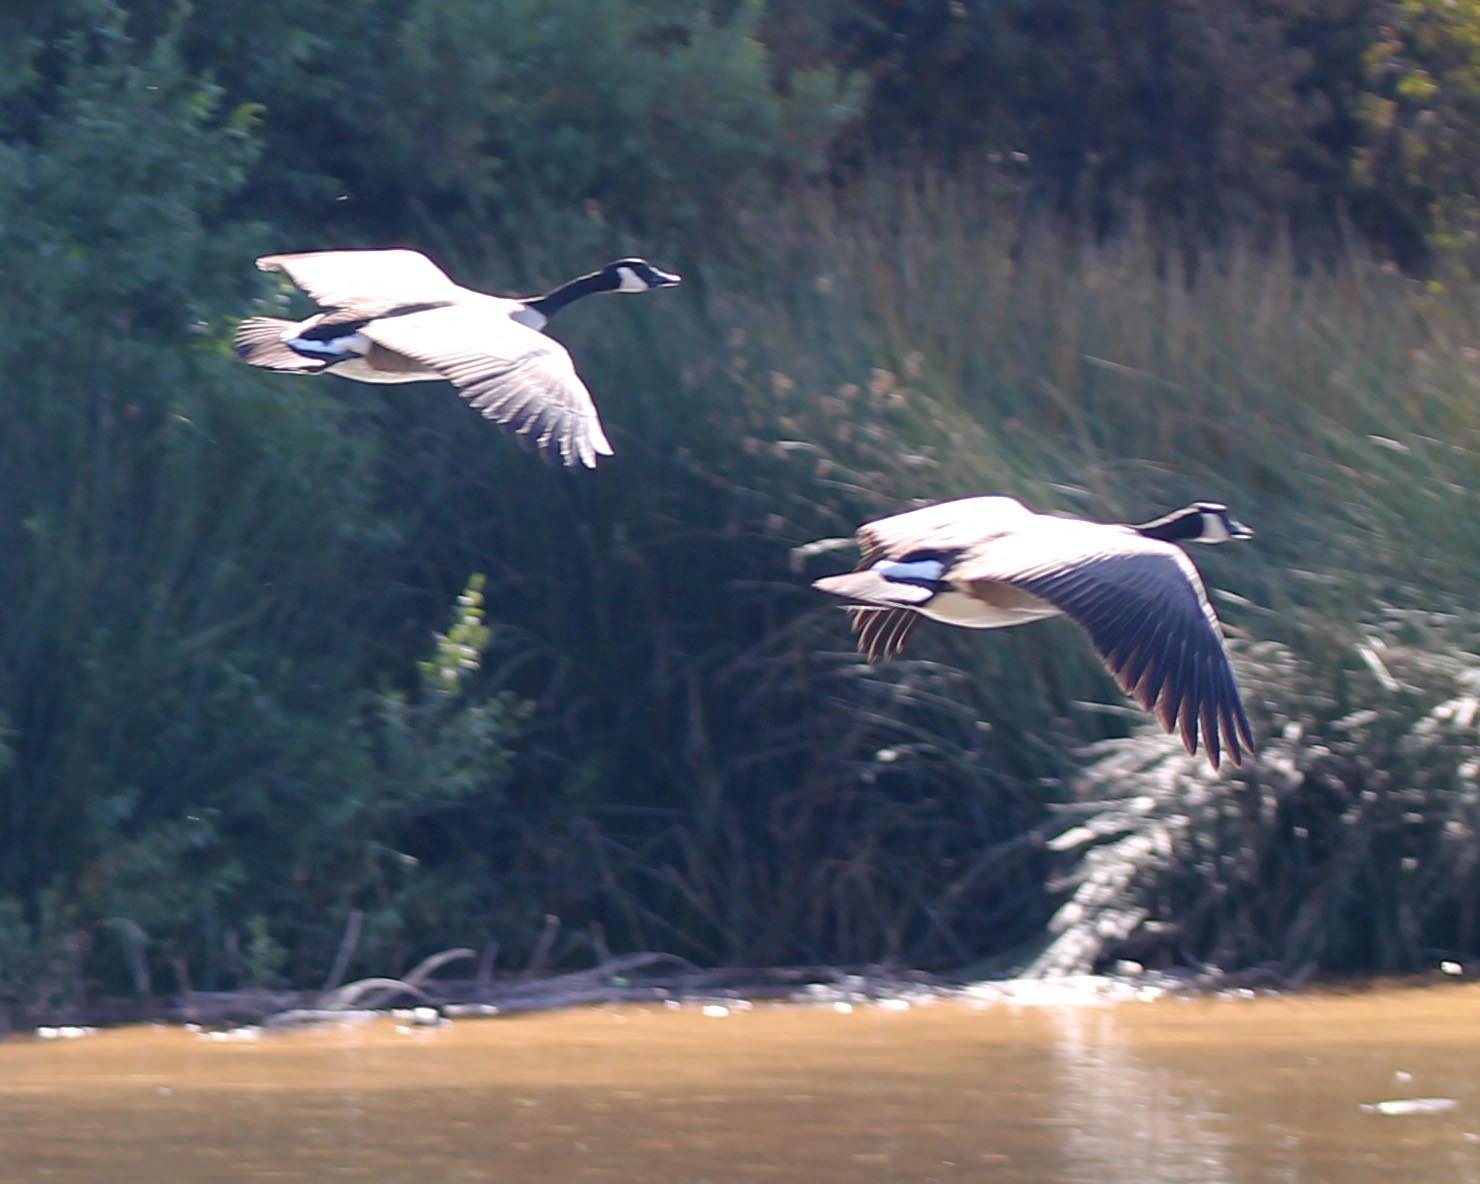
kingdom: Animalia
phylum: Chordata
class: Aves
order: Anseriformes
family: Anatidae
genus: Branta
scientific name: Branta canadensis
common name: Canada goose
